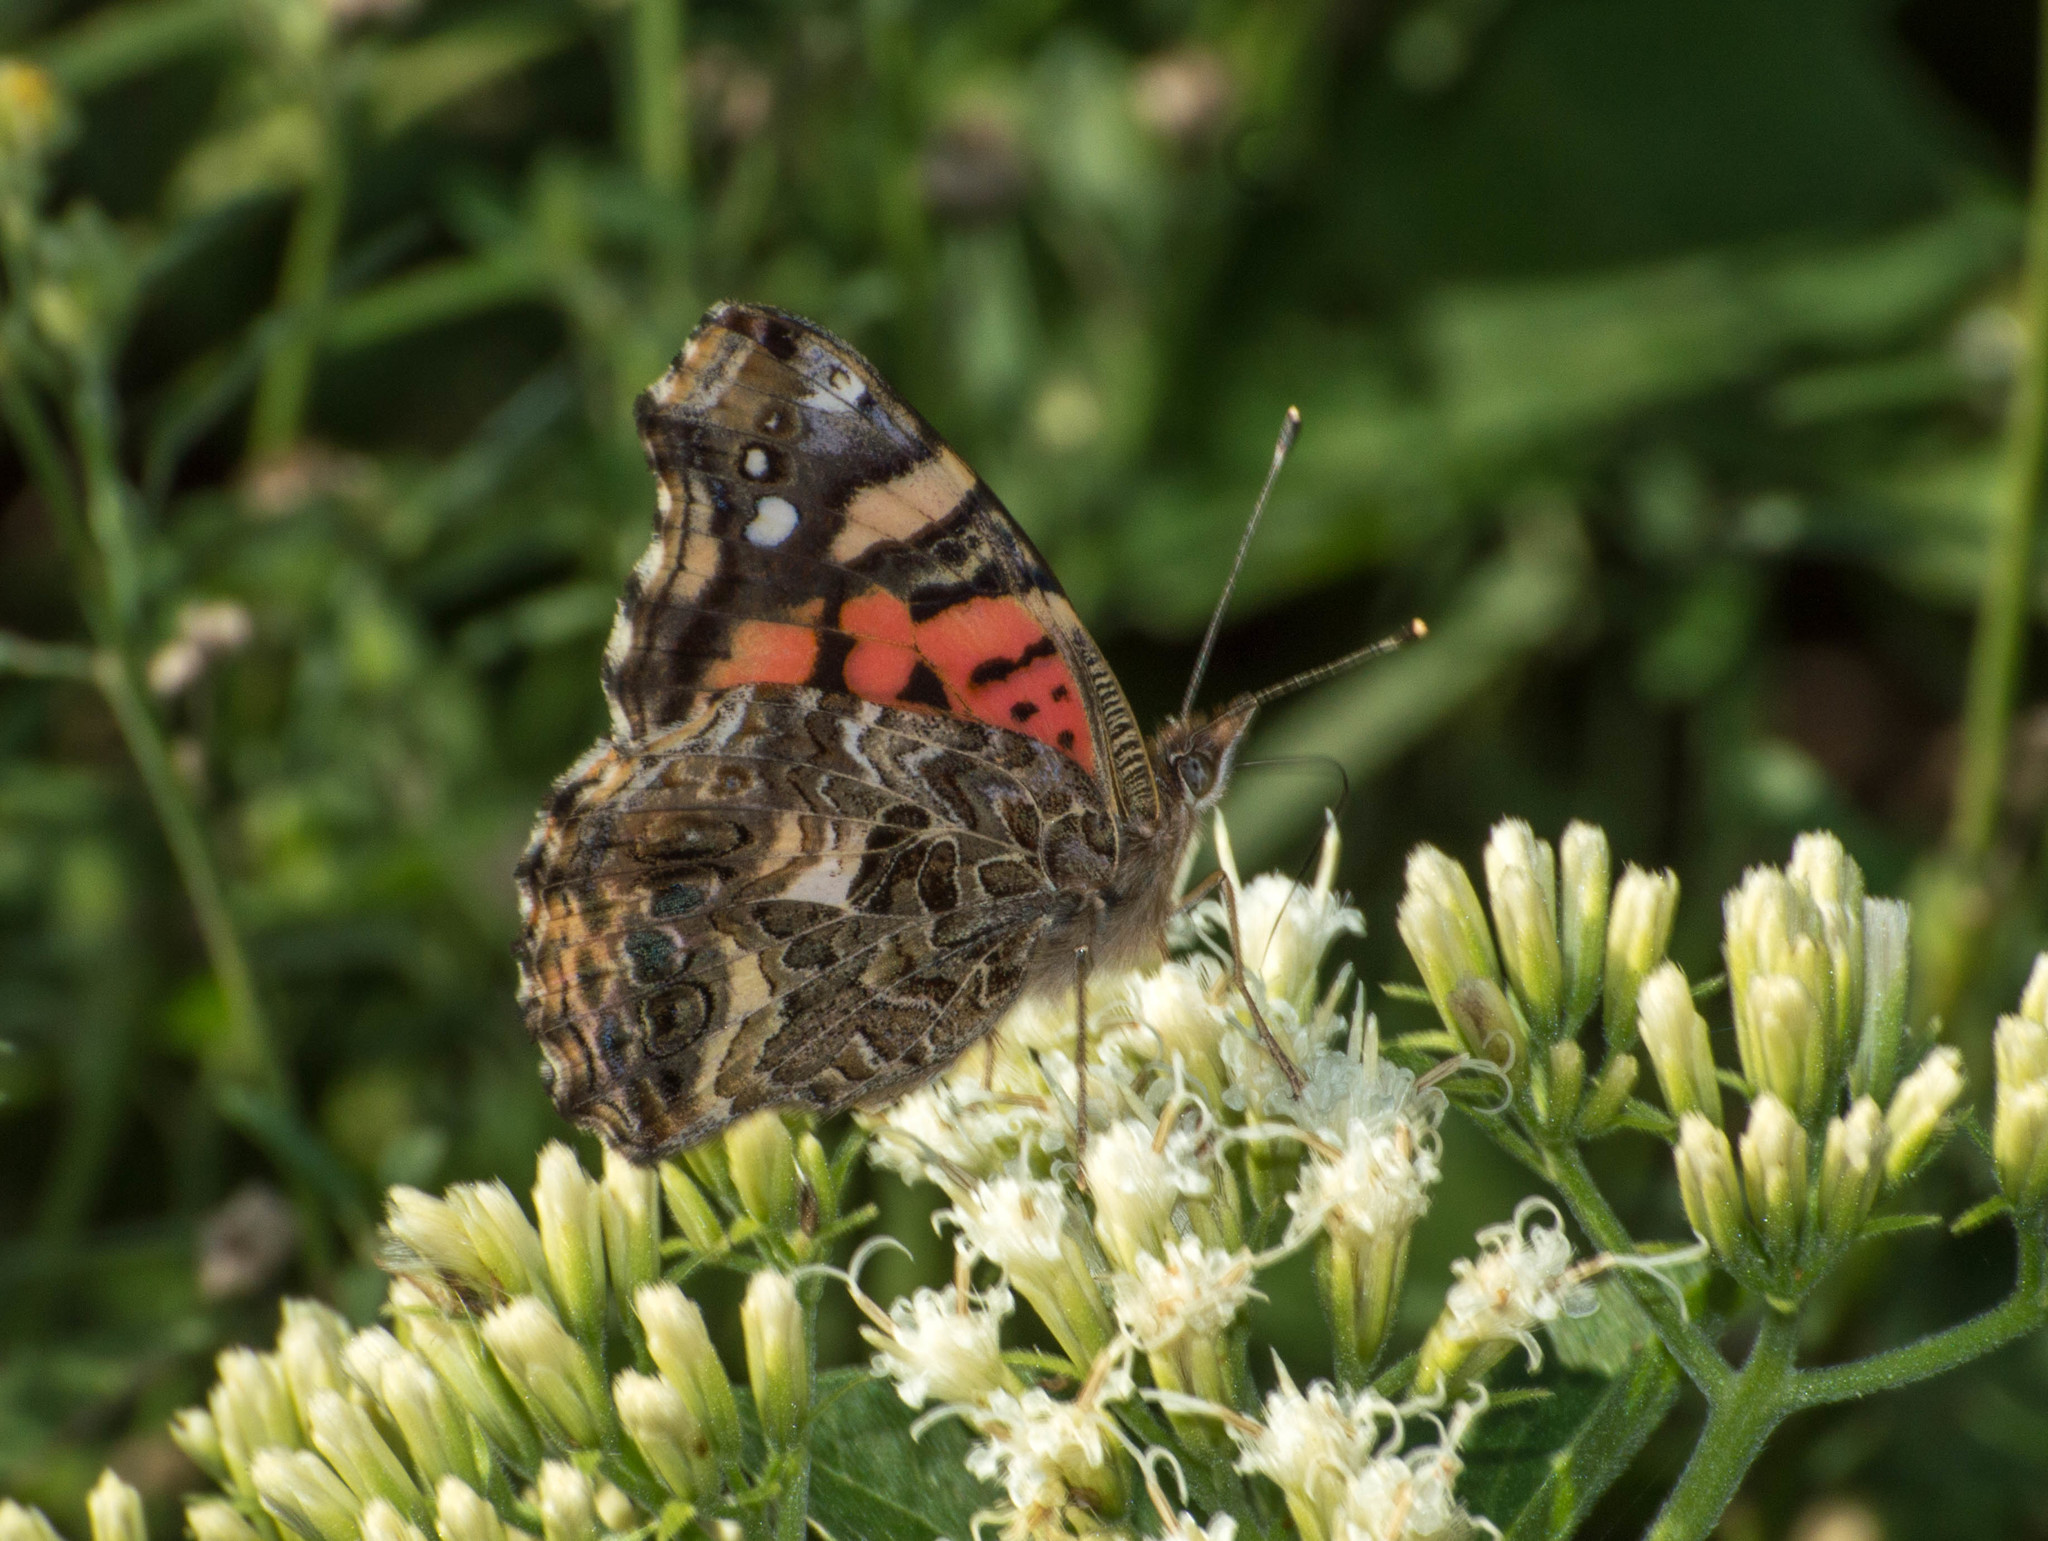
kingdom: Animalia
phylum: Arthropoda
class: Insecta
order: Lepidoptera
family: Nymphalidae
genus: Vanessa
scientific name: Vanessa carye
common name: Subtropical lady
